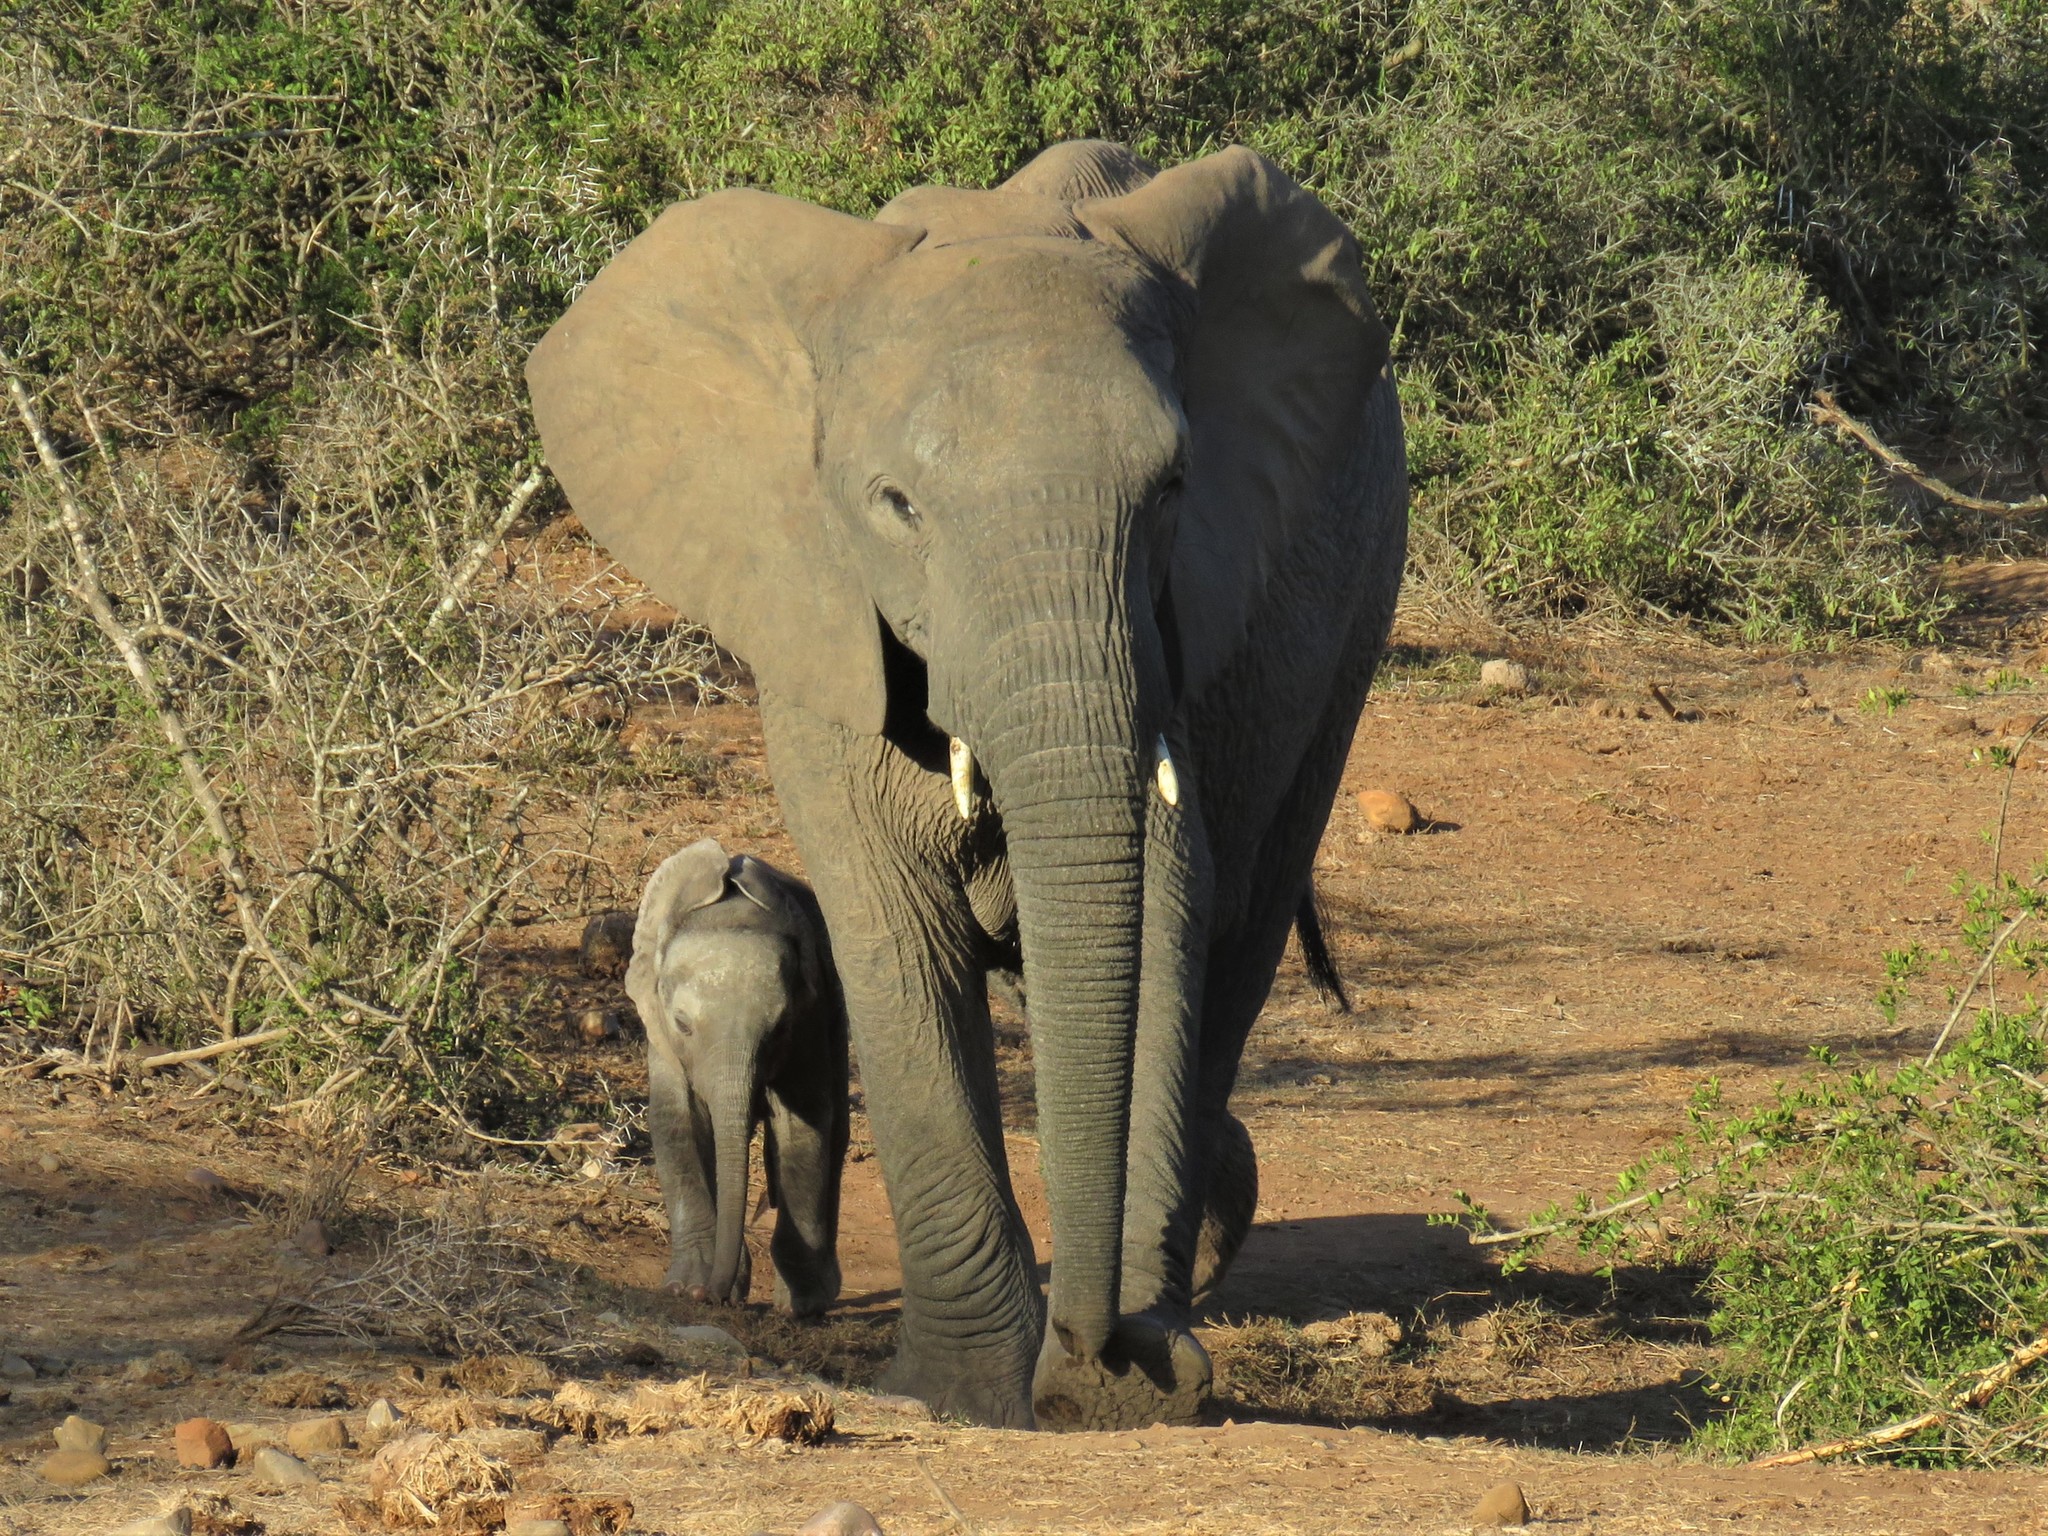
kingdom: Animalia
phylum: Chordata
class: Mammalia
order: Proboscidea
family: Elephantidae
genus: Loxodonta
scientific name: Loxodonta africana
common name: African elephant
